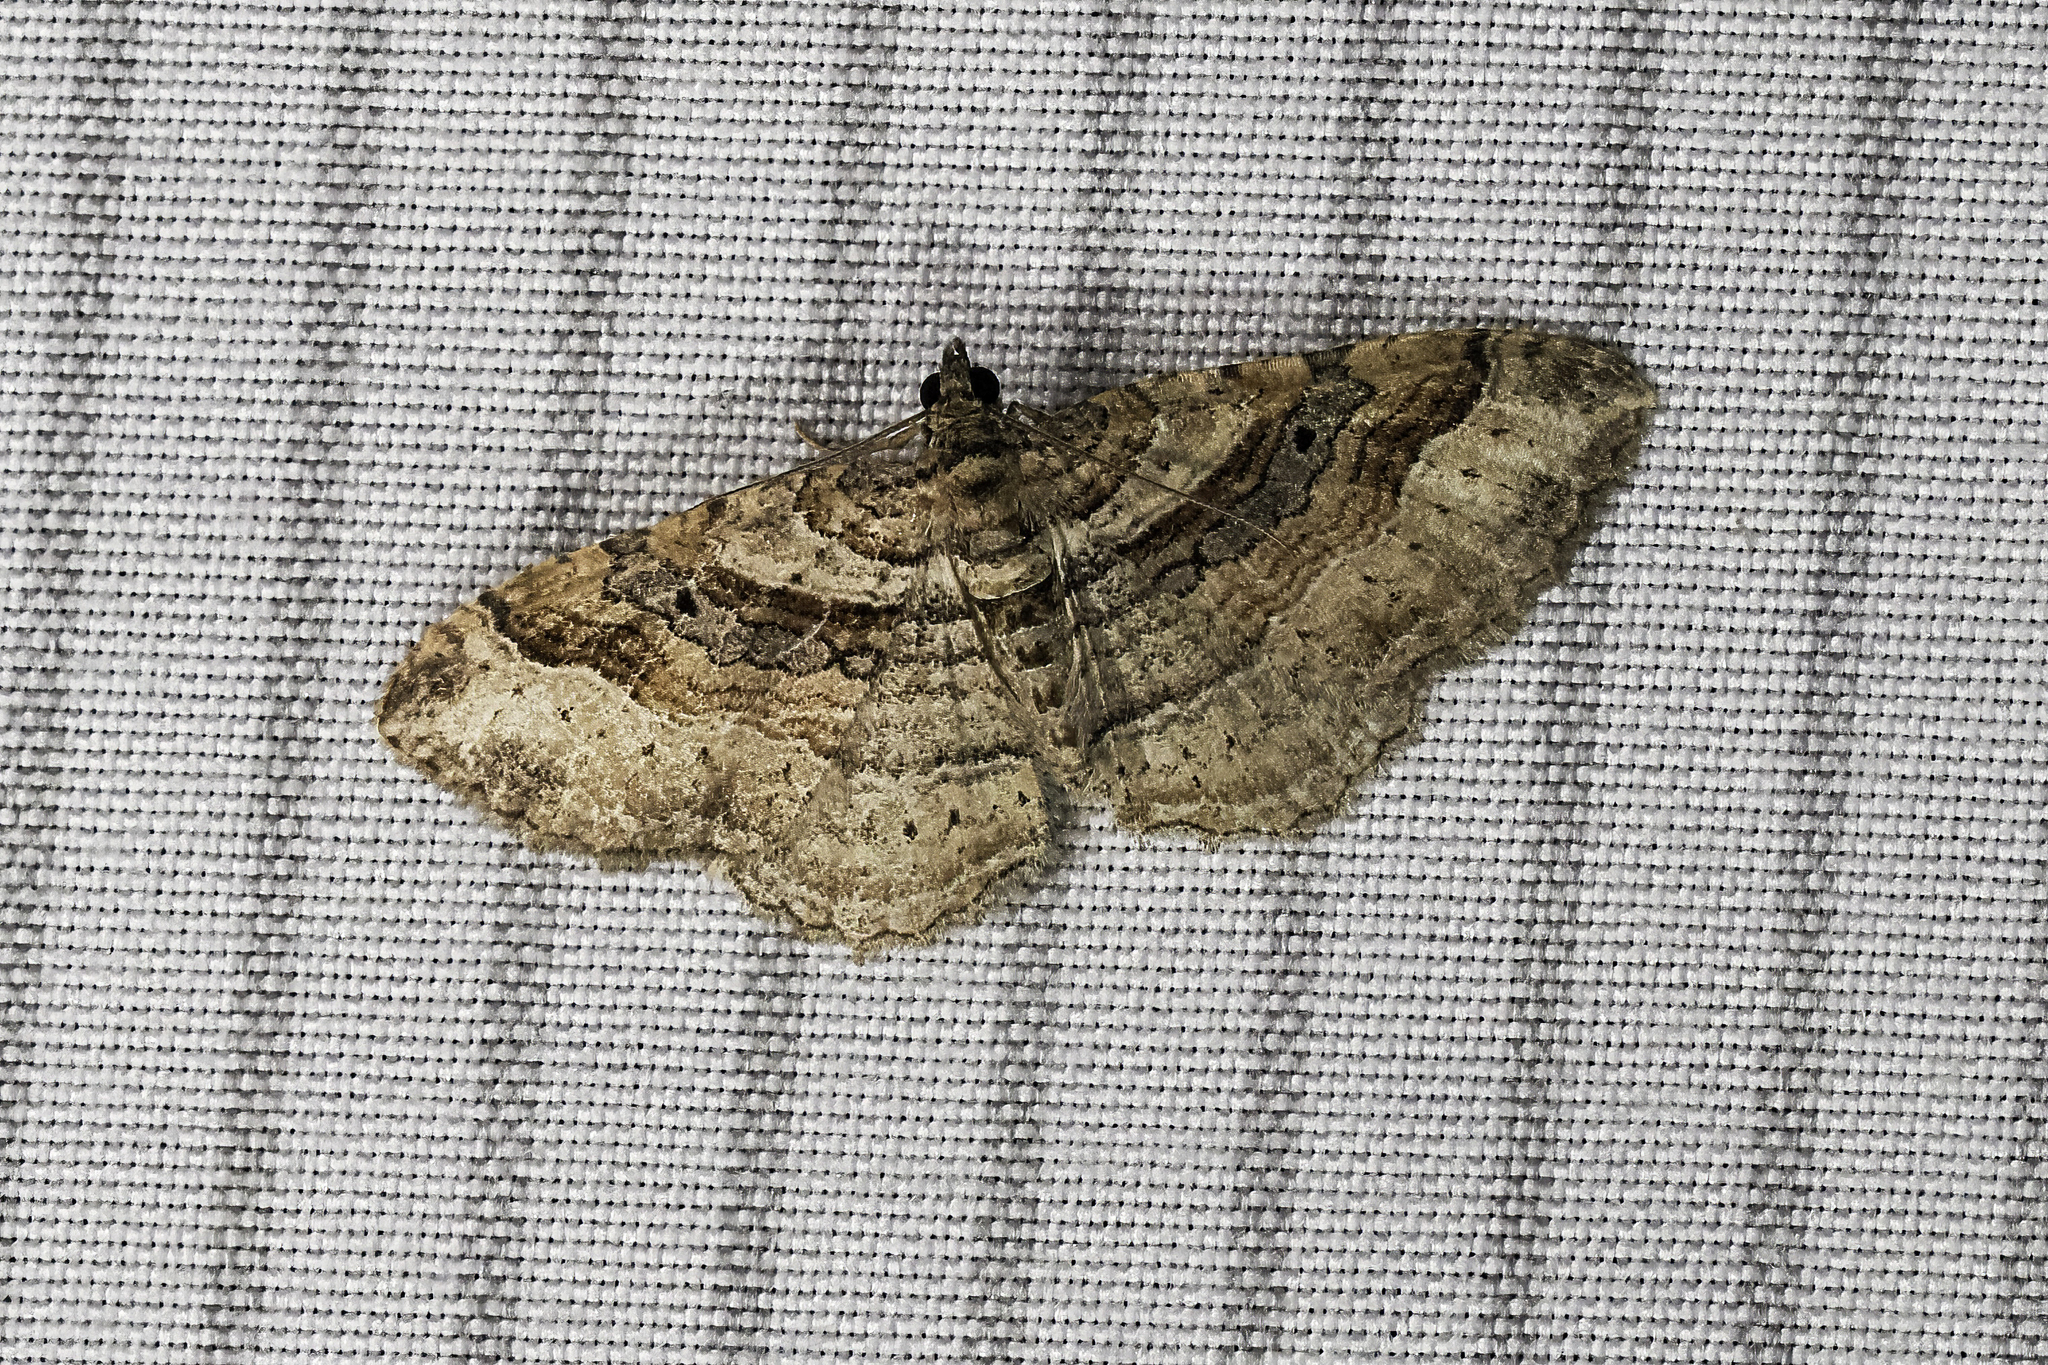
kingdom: Animalia
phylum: Arthropoda
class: Insecta
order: Lepidoptera
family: Geometridae
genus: Costaconvexa
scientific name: Costaconvexa centrostrigaria
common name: Bent-line carpet
